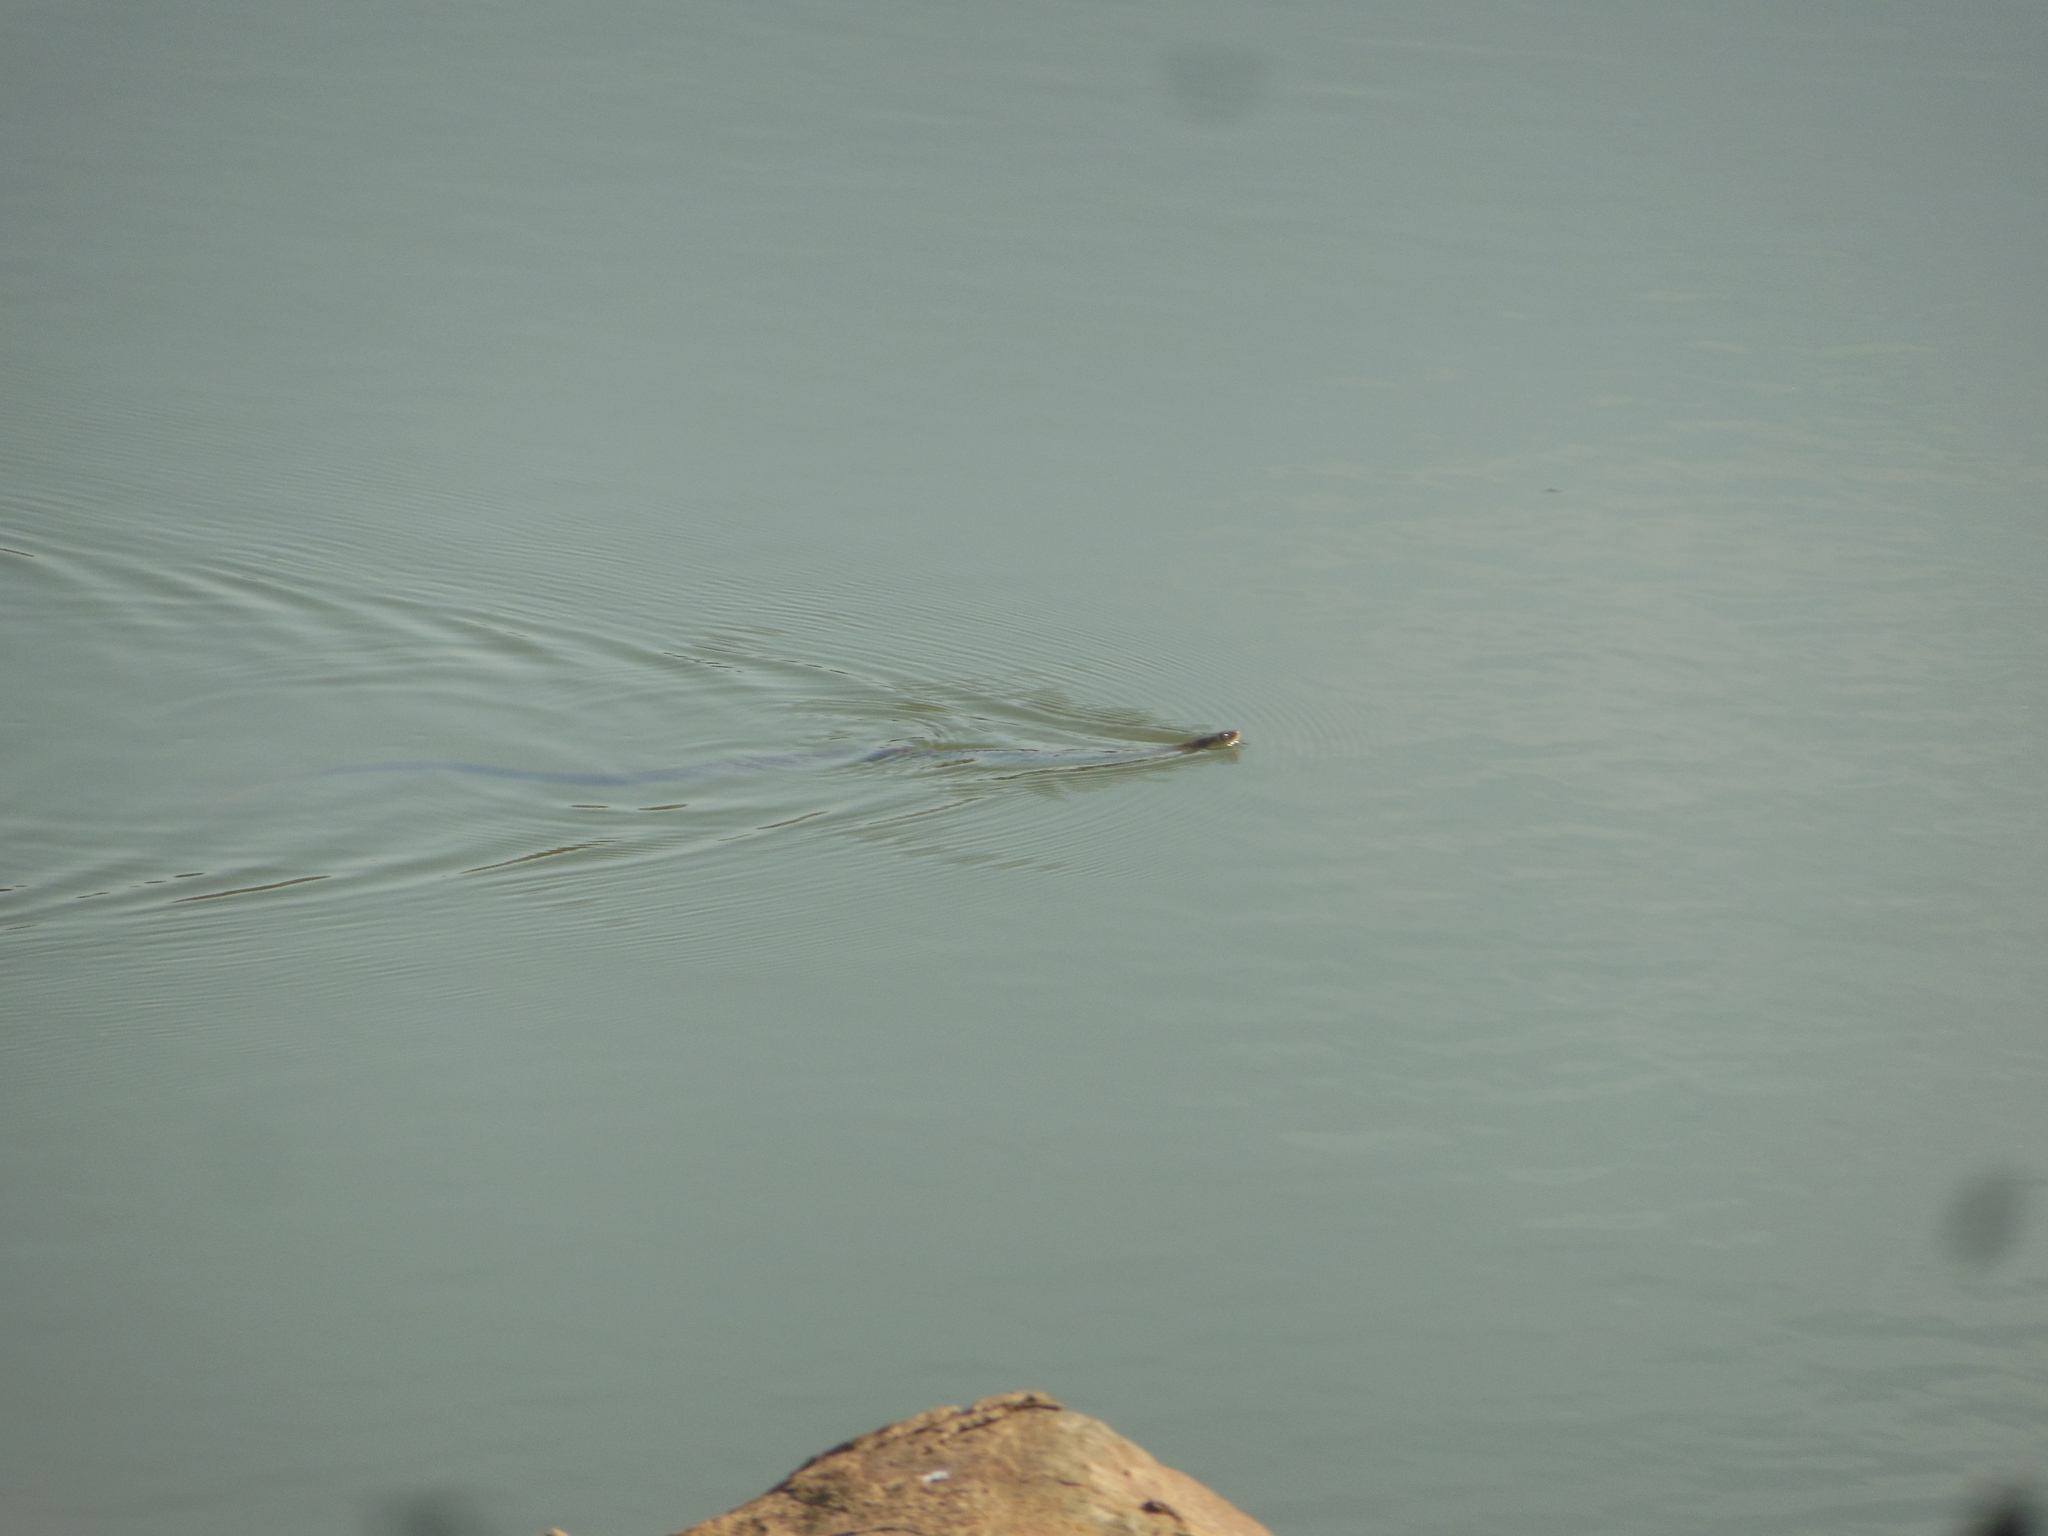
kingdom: Animalia
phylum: Chordata
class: Squamata
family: Colubridae
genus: Fowlea
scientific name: Fowlea piscator
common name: Asiatic water snake
